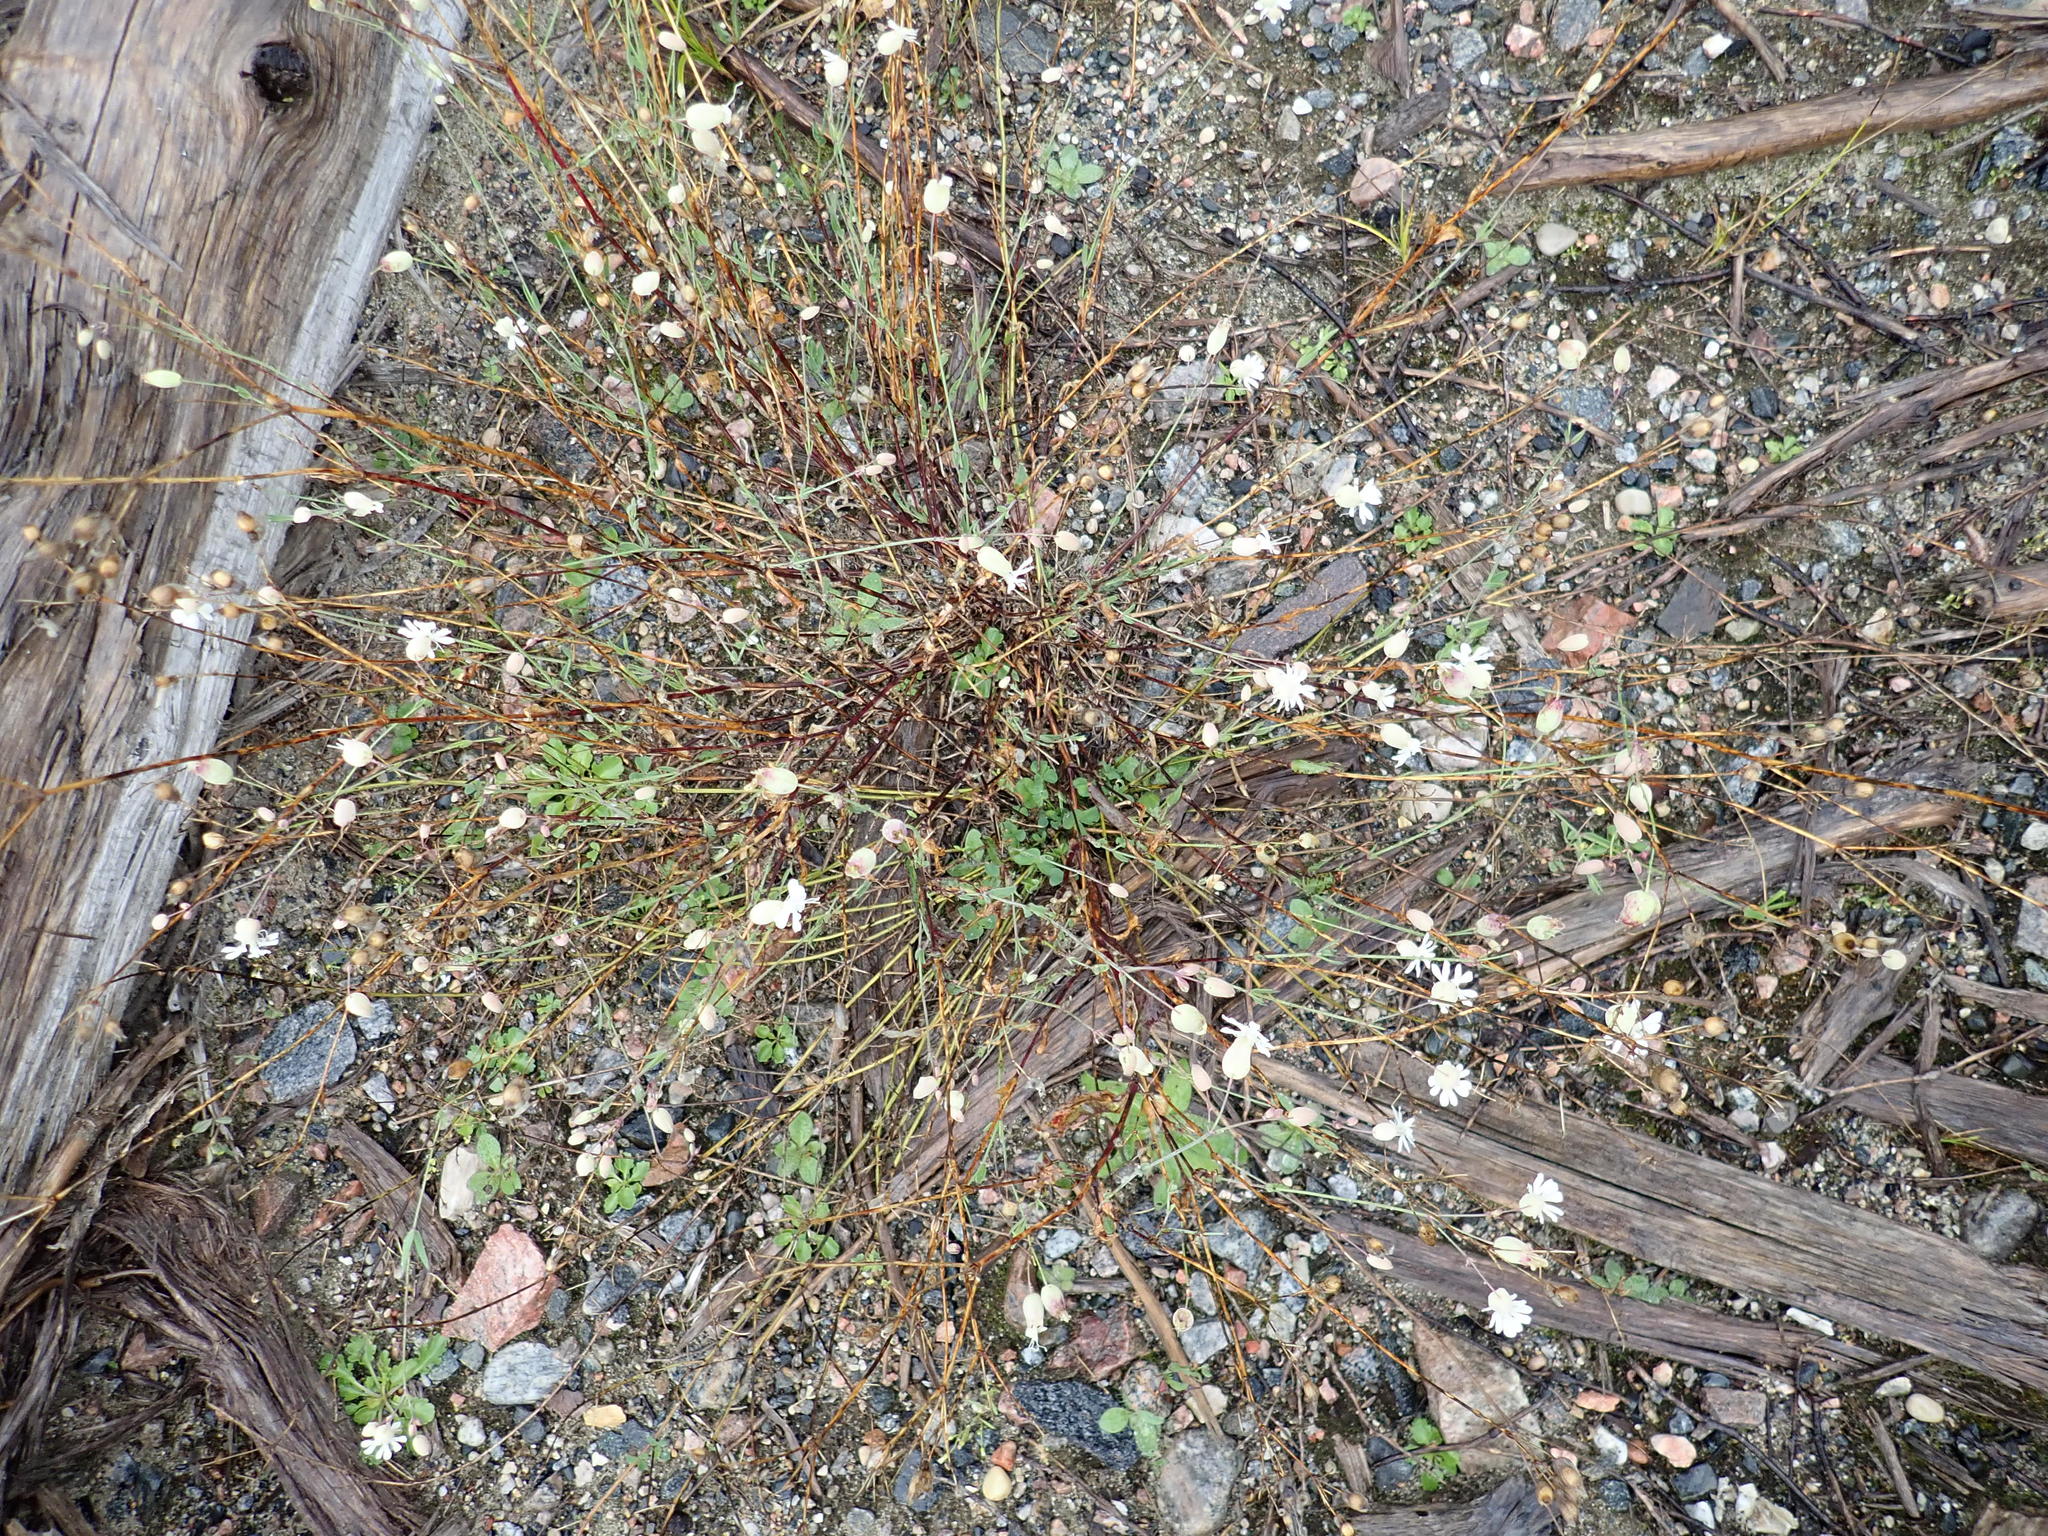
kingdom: Plantae
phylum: Tracheophyta
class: Magnoliopsida
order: Caryophyllales
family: Caryophyllaceae
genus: Silene
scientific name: Silene vulgaris
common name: Bladder campion
